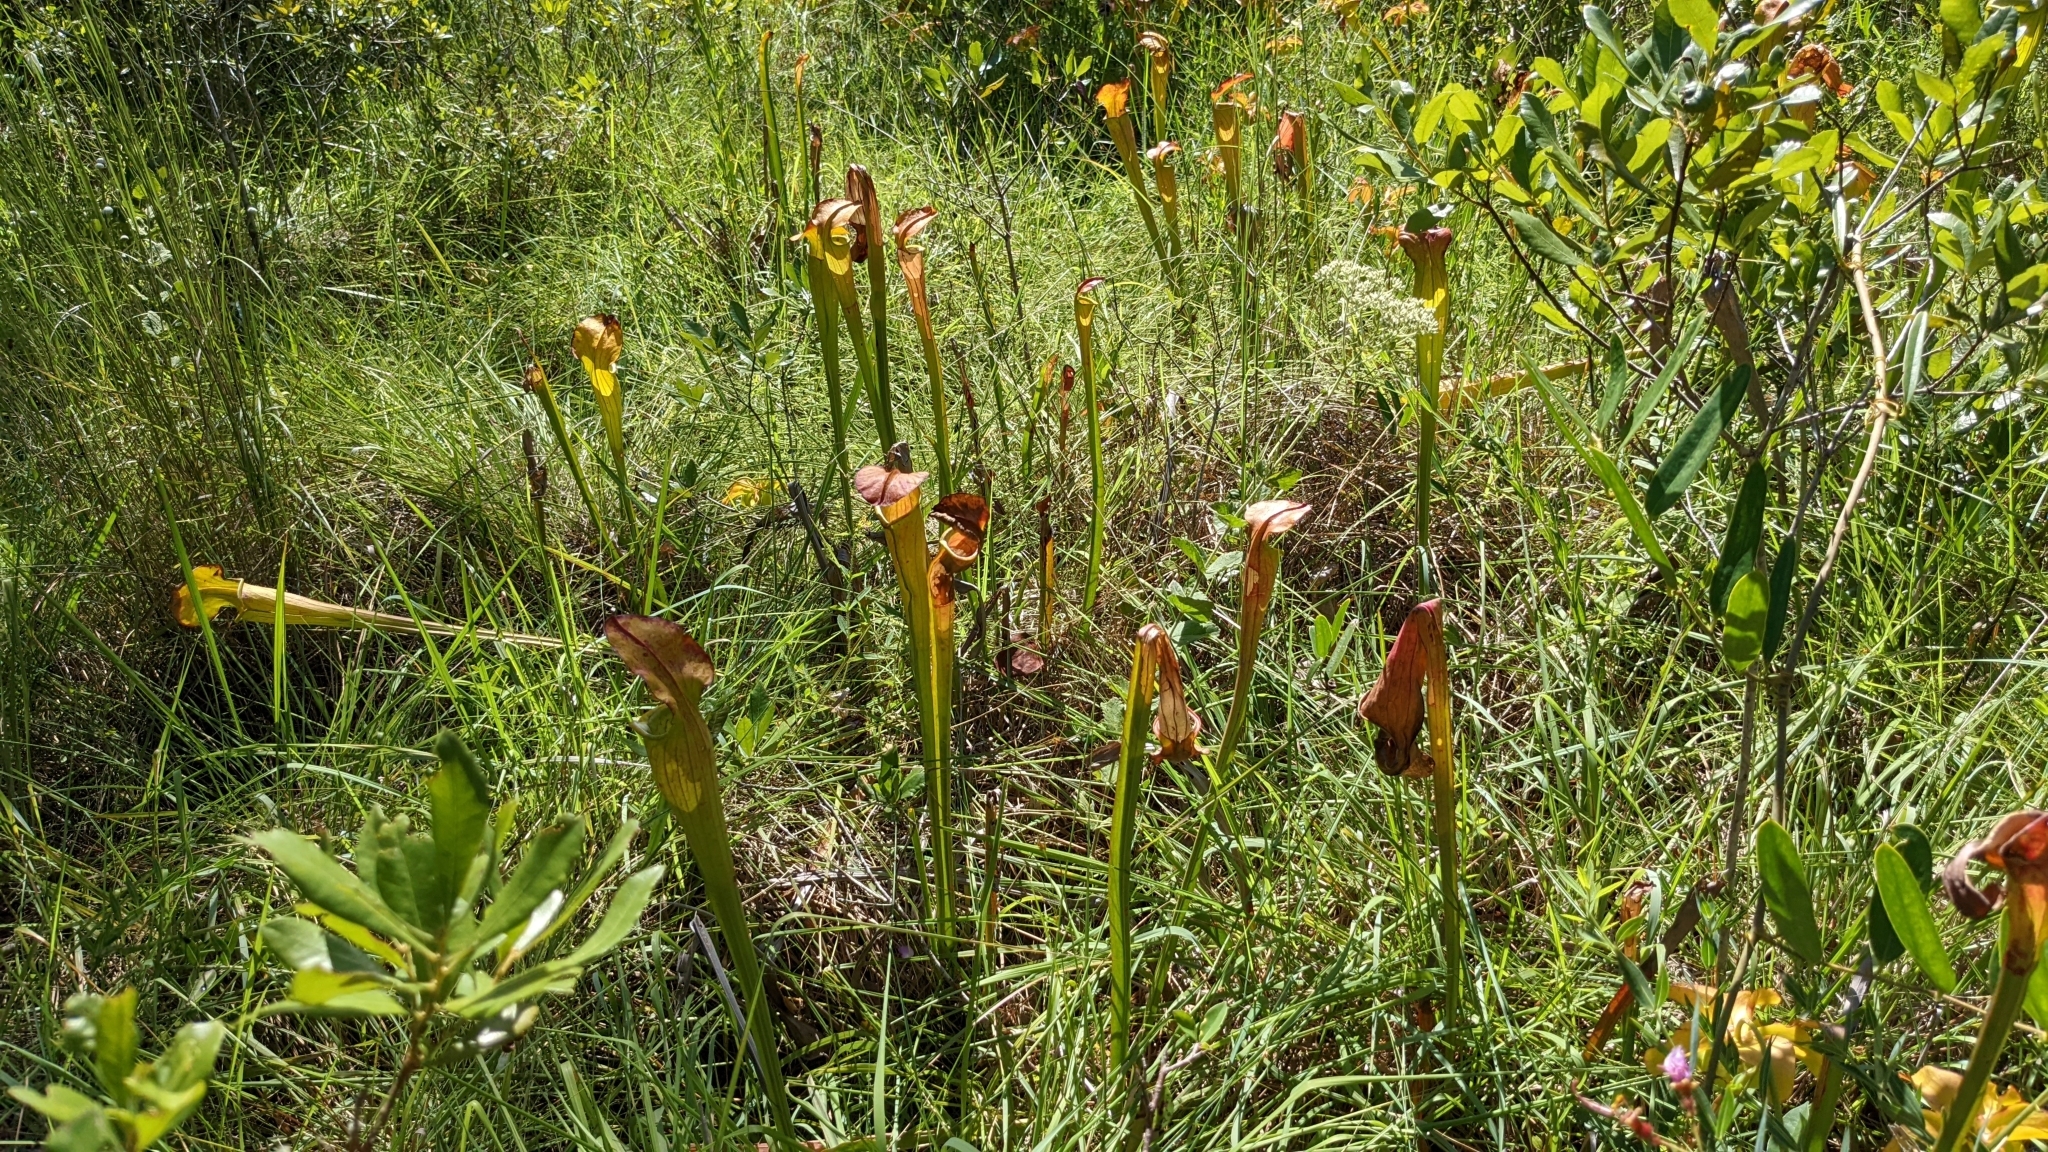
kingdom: Plantae
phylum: Tracheophyta
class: Magnoliopsida
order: Ericales
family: Sarraceniaceae
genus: Sarracenia
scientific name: Sarracenia alata
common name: Yellow trumpets
